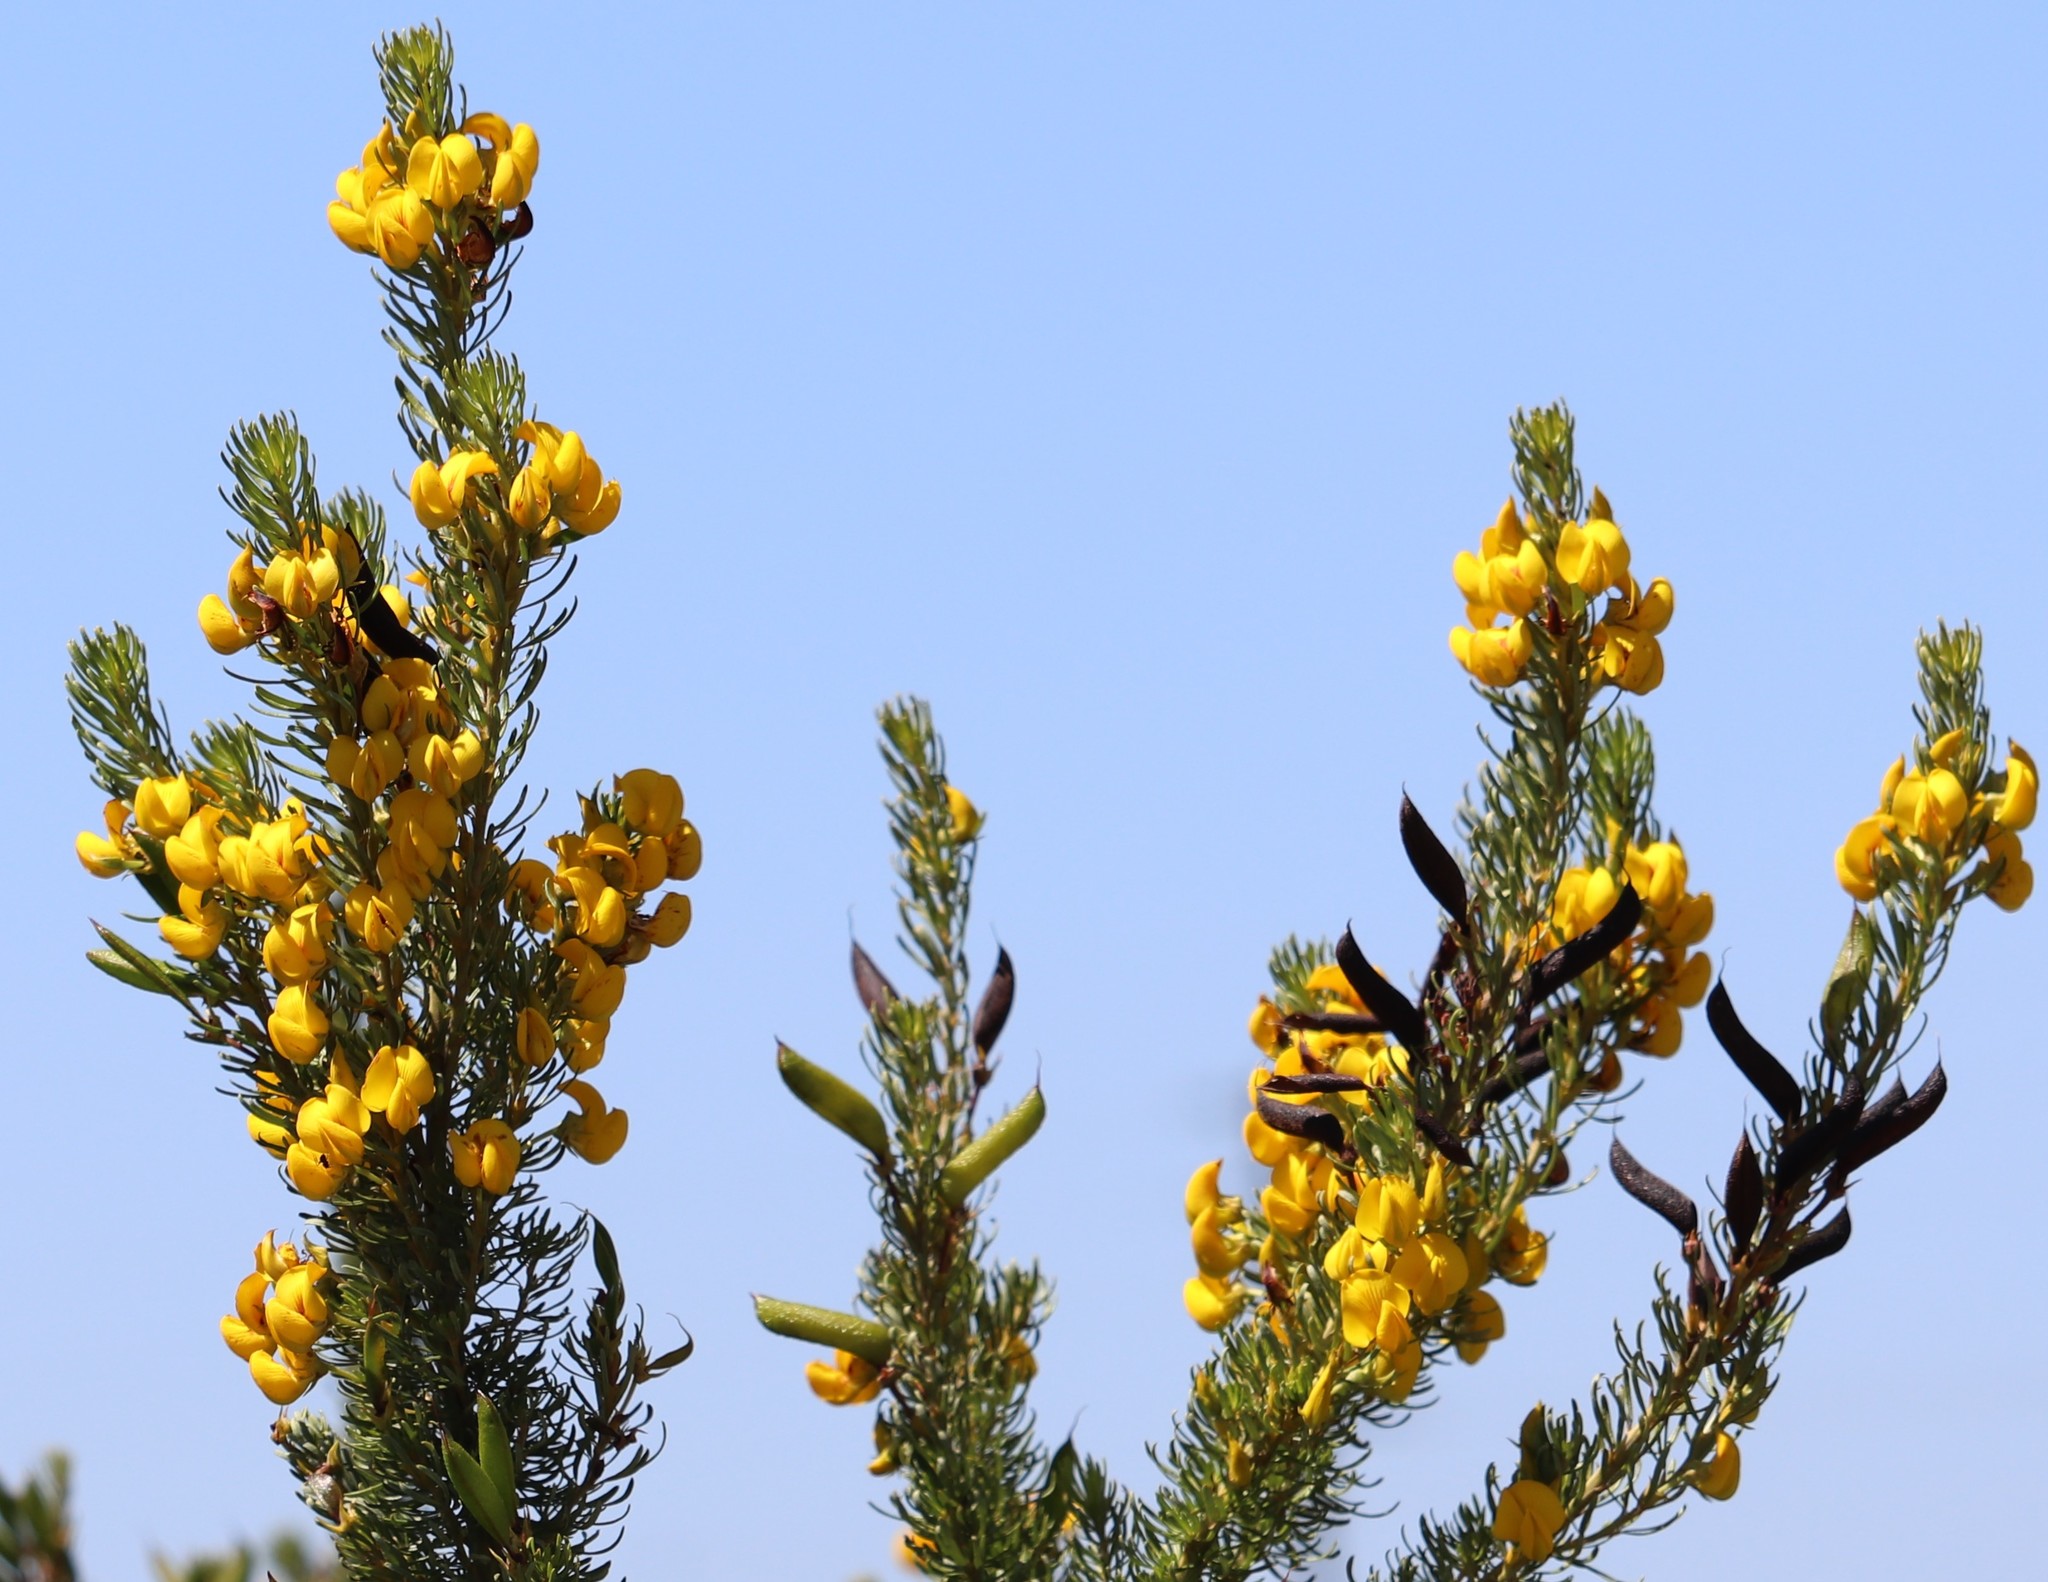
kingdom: Plantae
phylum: Tracheophyta
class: Magnoliopsida
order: Fabales
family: Fabaceae
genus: Cyclopia
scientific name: Cyclopia pubescens
